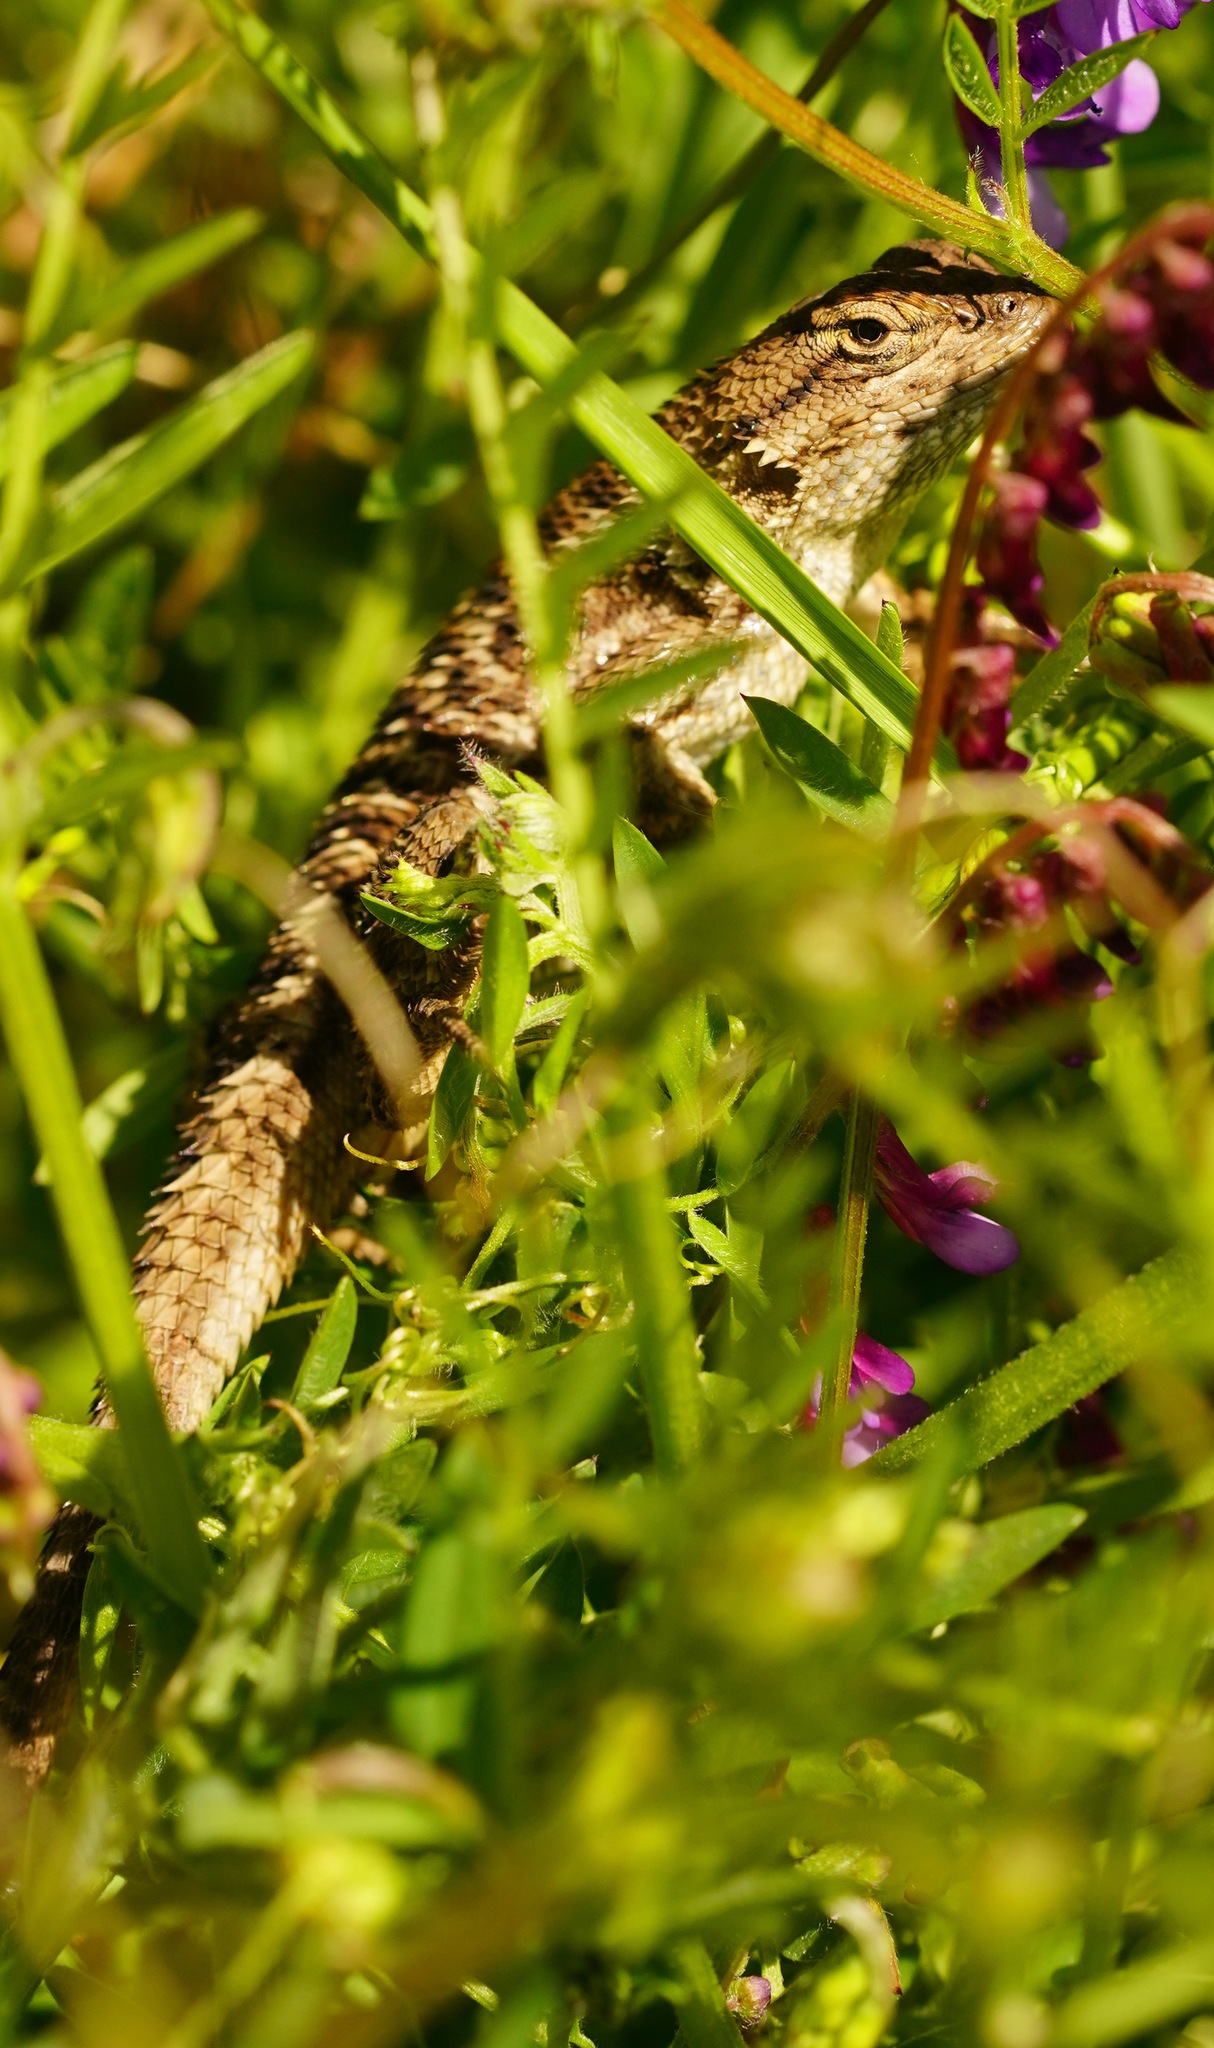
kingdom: Animalia
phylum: Chordata
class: Squamata
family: Phrynosomatidae
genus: Sceloporus
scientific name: Sceloporus occidentalis
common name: Western fence lizard
